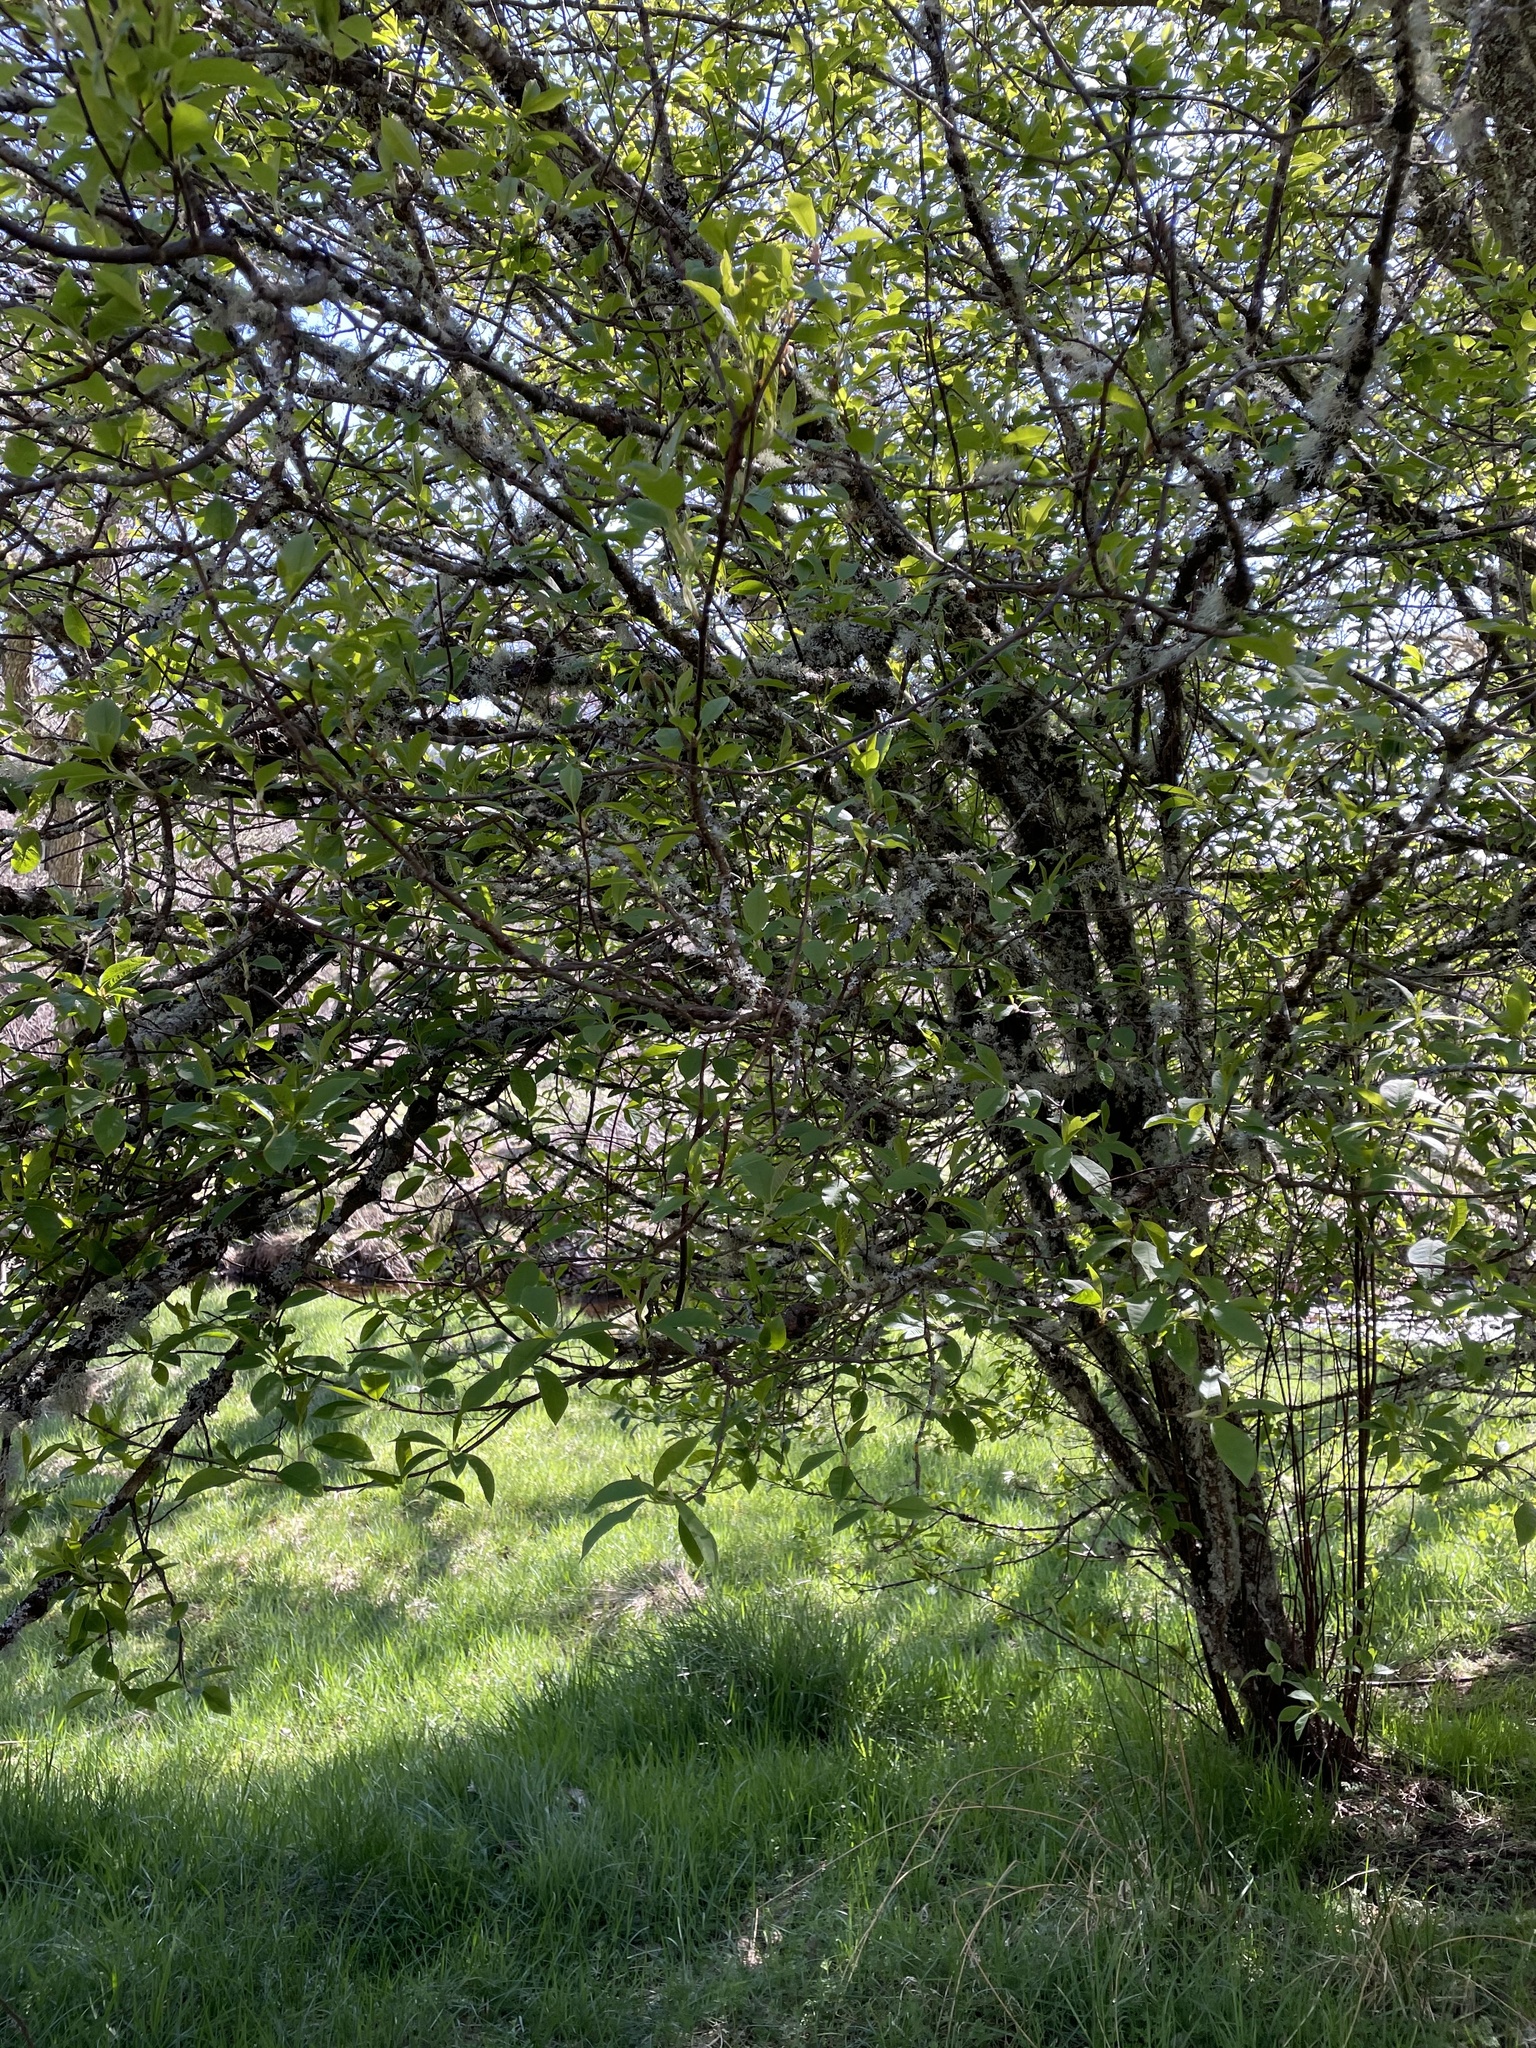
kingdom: Plantae
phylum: Tracheophyta
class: Magnoliopsida
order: Rosales
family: Rosaceae
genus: Prunus
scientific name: Prunus padus
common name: Bird cherry
